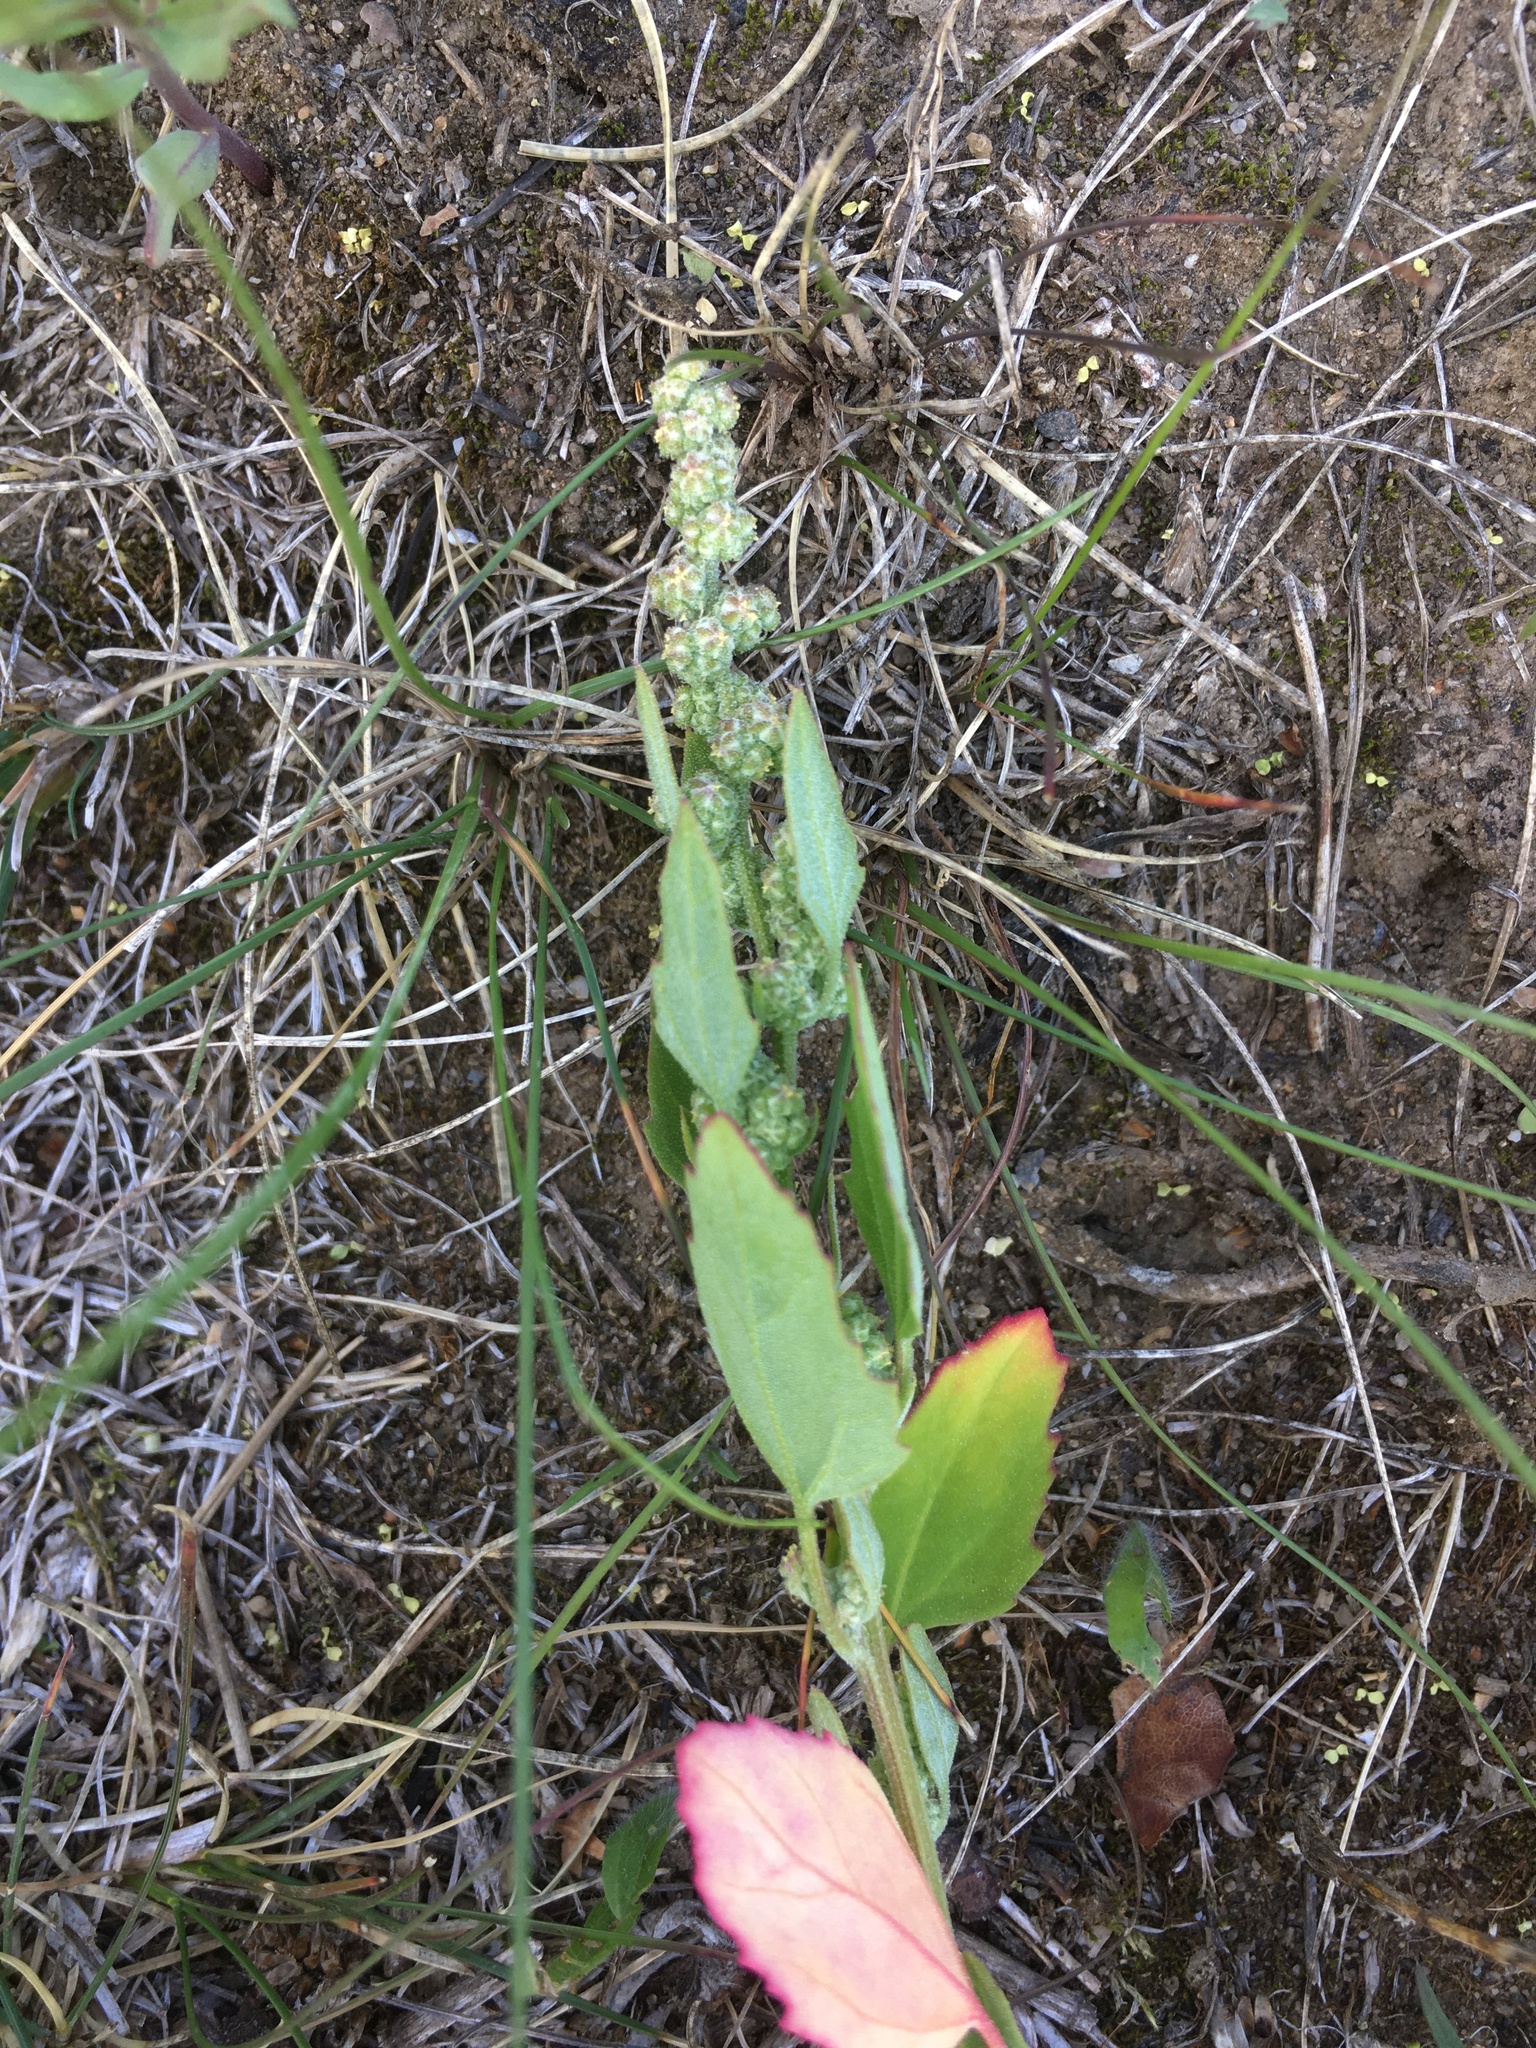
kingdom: Plantae
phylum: Tracheophyta
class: Magnoliopsida
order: Caryophyllales
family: Amaranthaceae
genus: Chenopodium
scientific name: Chenopodium album
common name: Fat-hen
